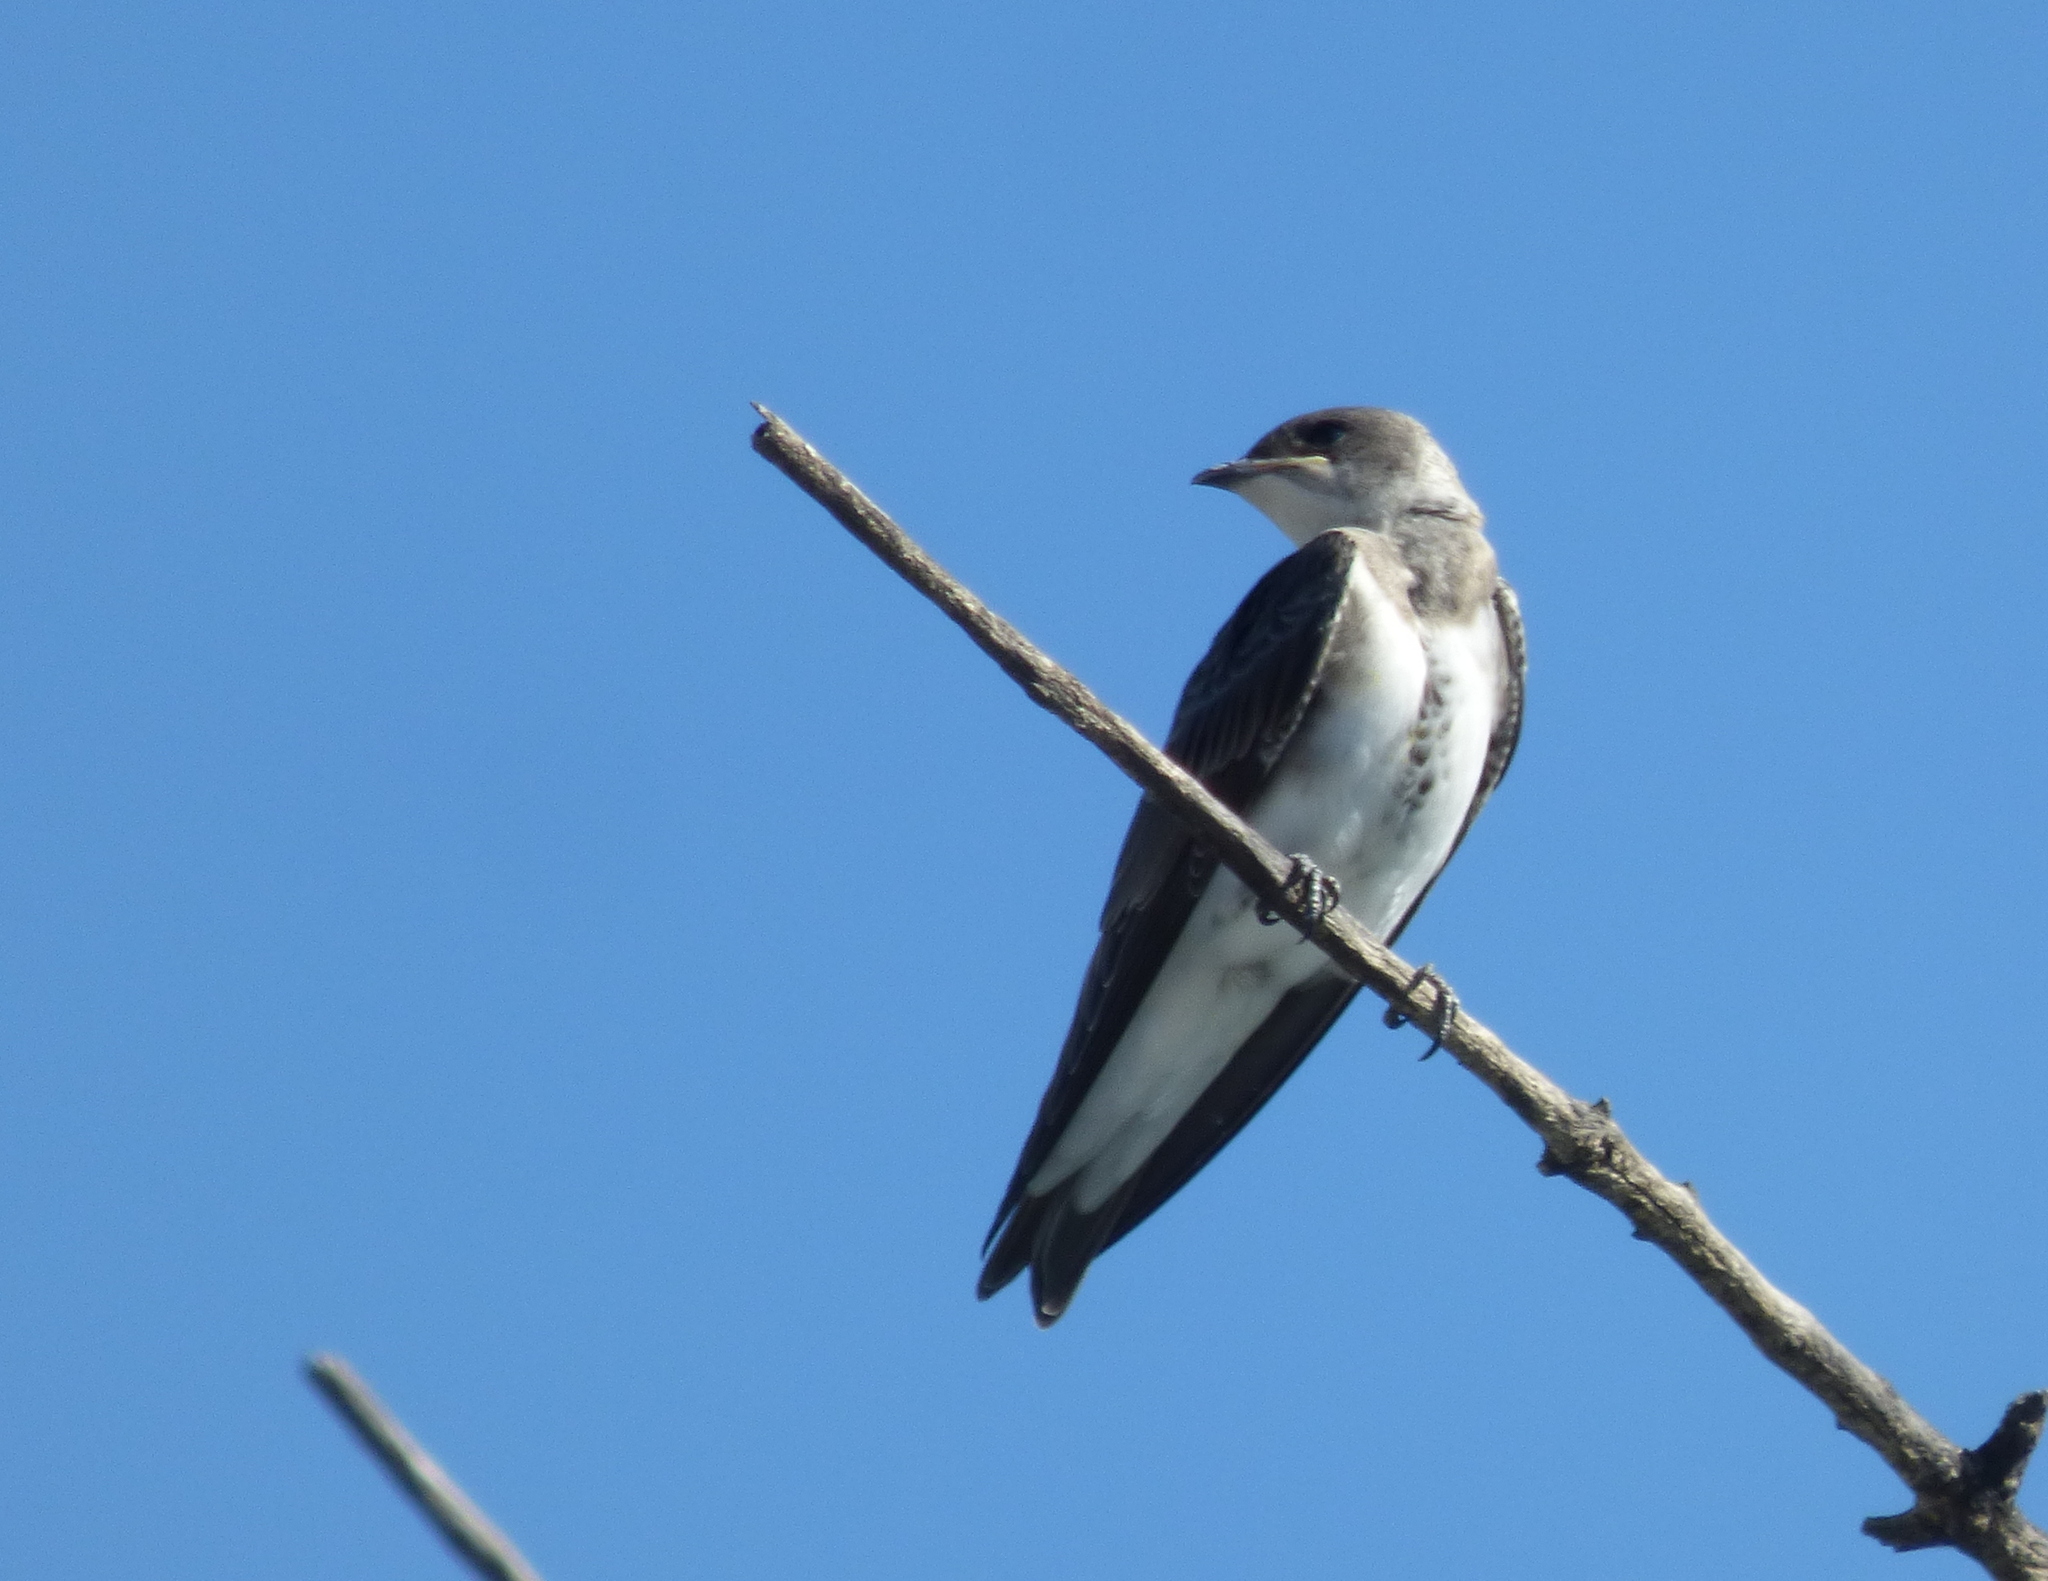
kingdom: Animalia
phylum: Chordata
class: Aves
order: Passeriformes
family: Hirundinidae
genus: Progne
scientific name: Progne tapera
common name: Brown-chested martin
